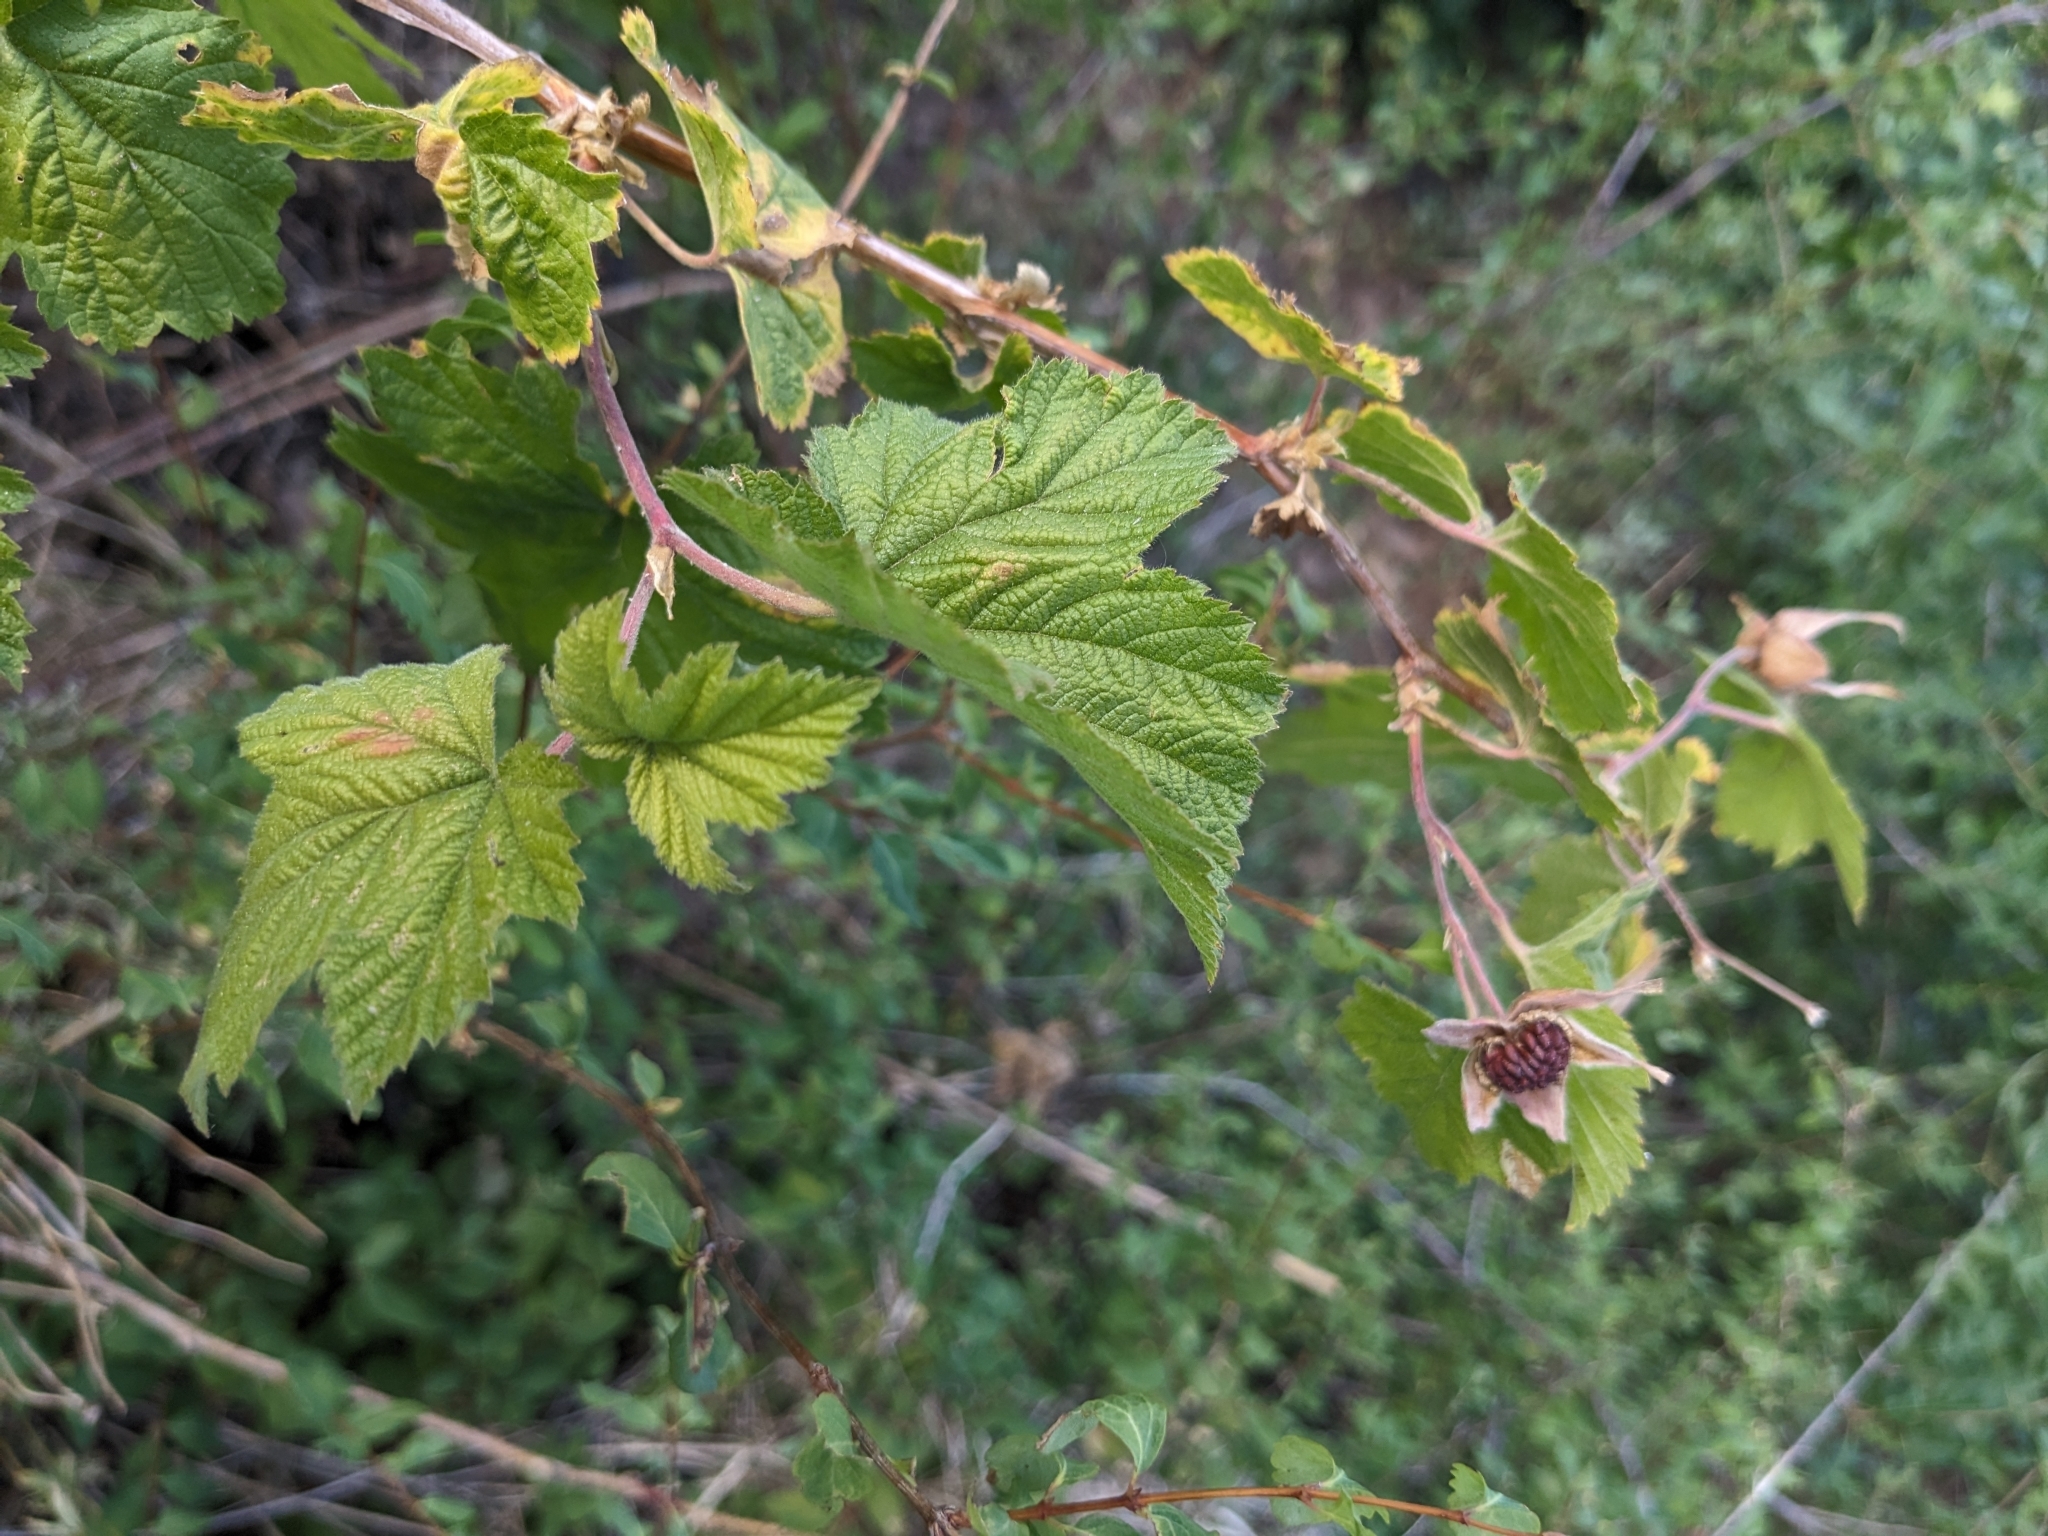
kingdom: Plantae
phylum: Tracheophyta
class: Magnoliopsida
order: Rosales
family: Rosaceae
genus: Rubus
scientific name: Rubus neomexicanus
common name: New mexico raspberry
